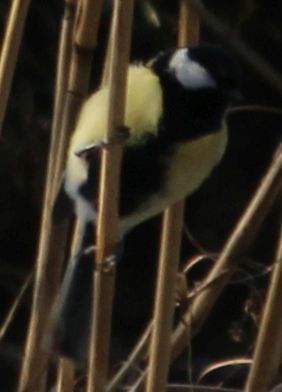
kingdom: Animalia
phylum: Chordata
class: Aves
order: Passeriformes
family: Paridae
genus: Parus
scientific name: Parus major
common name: Great tit
